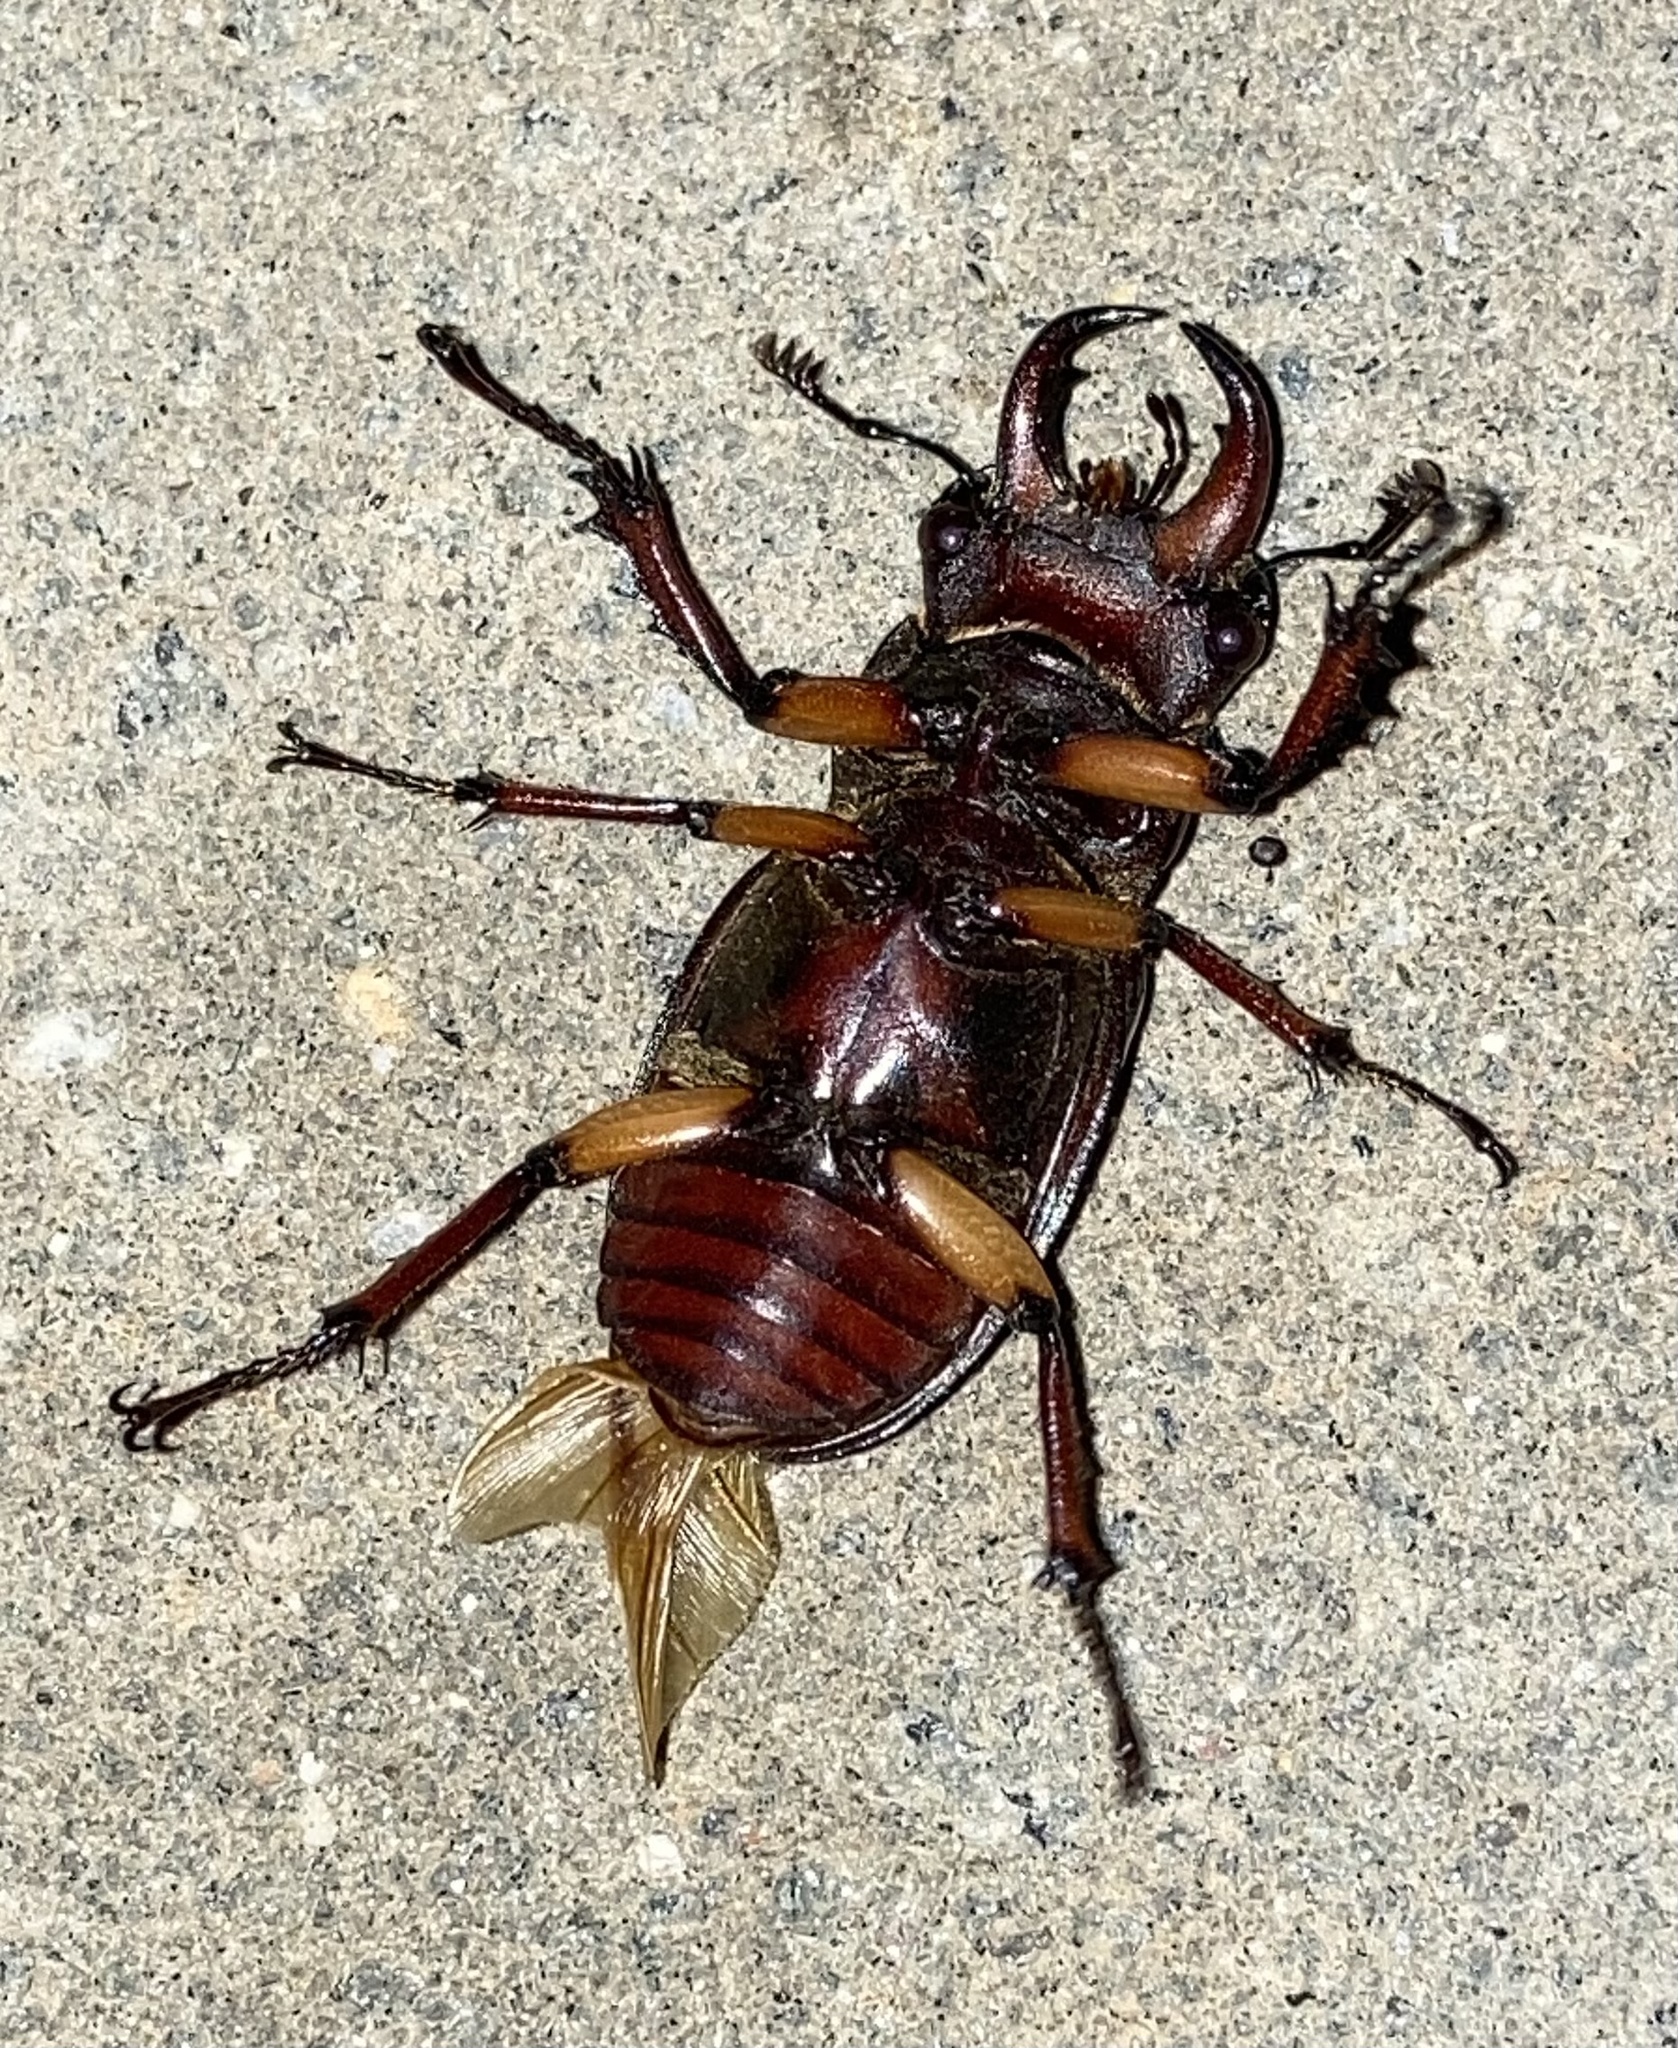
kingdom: Animalia
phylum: Arthropoda
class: Insecta
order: Coleoptera
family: Lucanidae
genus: Lucanus
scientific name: Lucanus capreolus
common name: Stag beetle
